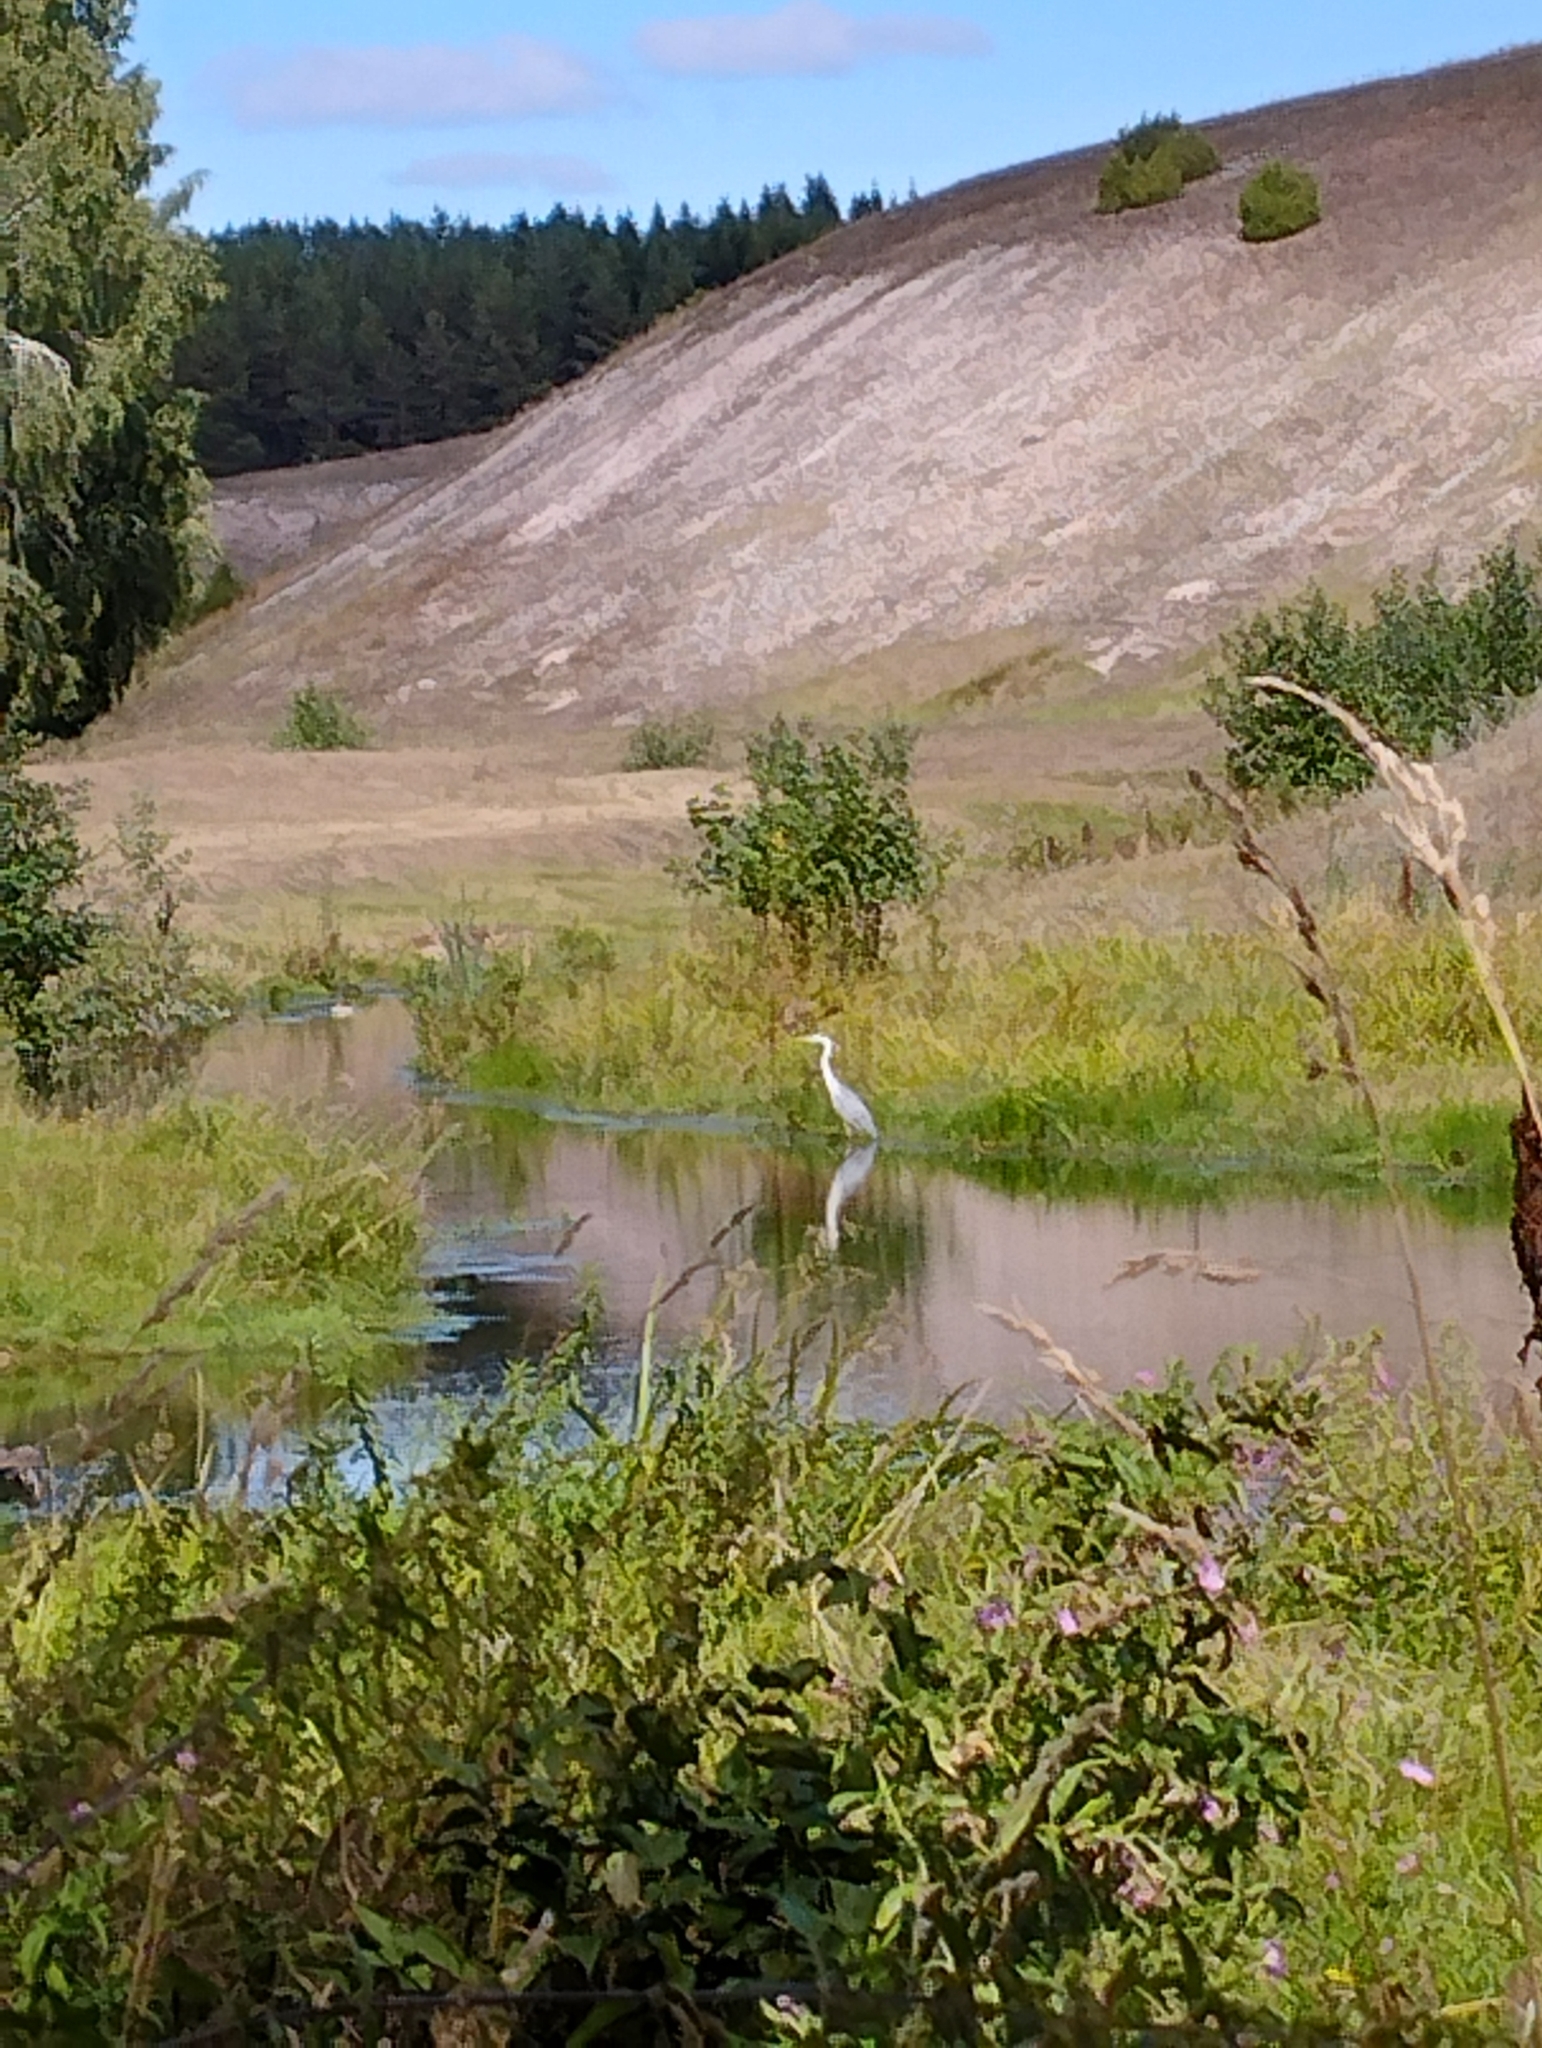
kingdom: Animalia
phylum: Chordata
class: Aves
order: Pelecaniformes
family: Ardeidae
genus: Ardea
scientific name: Ardea cinerea
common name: Grey heron
